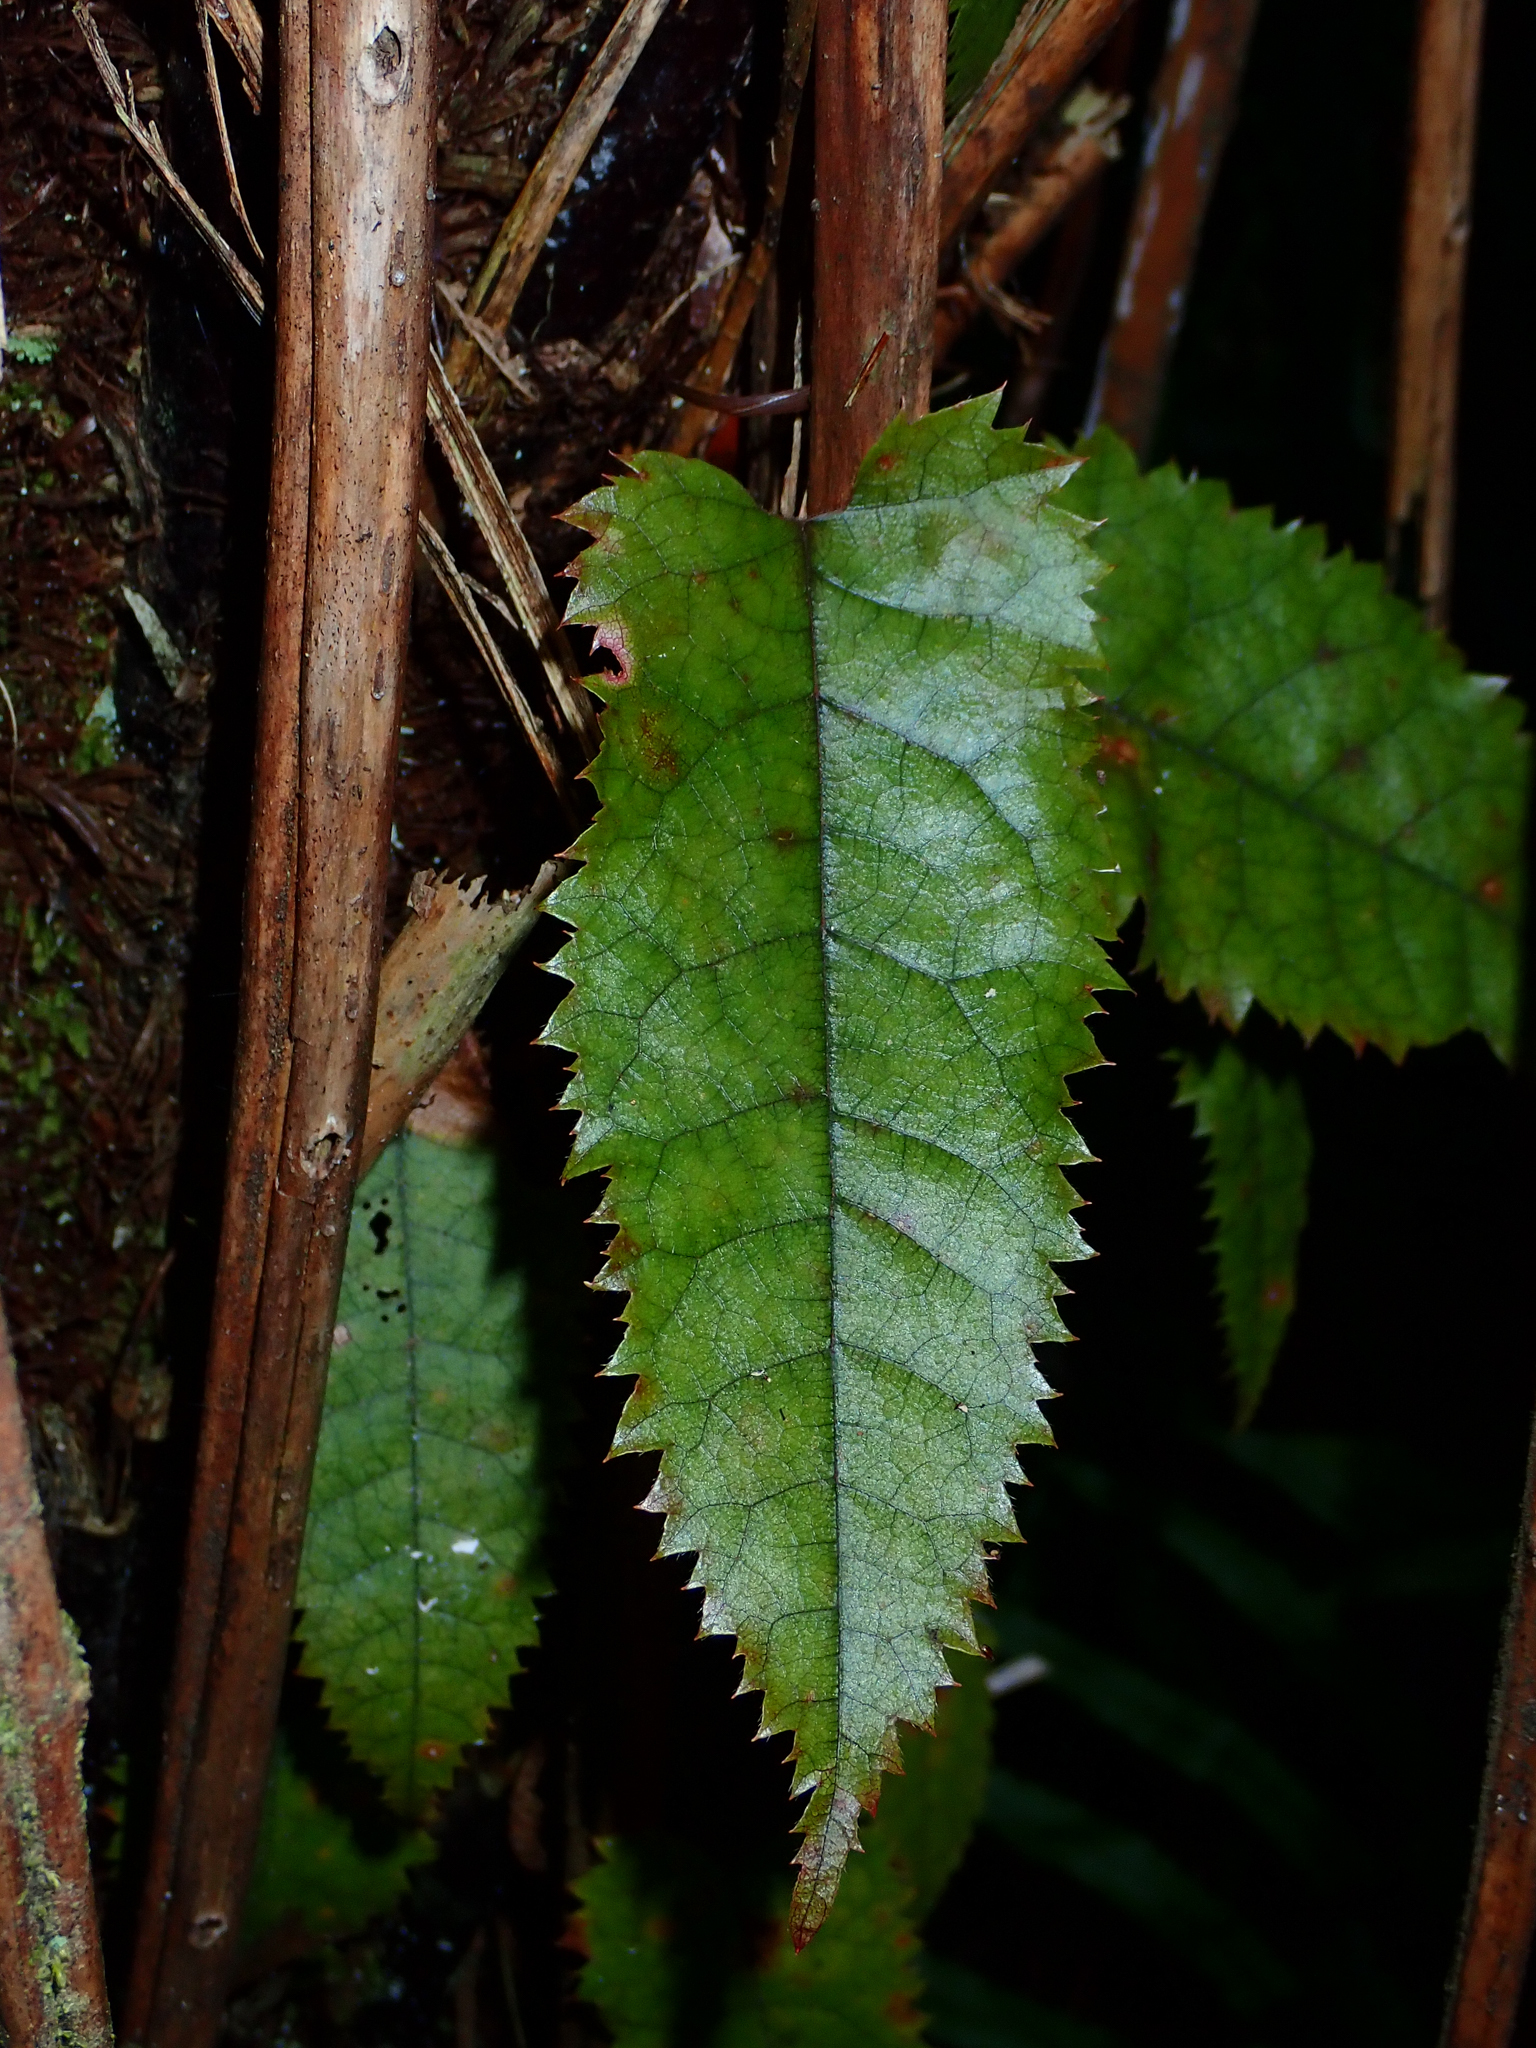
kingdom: Plantae
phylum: Tracheophyta
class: Magnoliopsida
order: Rosales
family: Rosaceae
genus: Rubus
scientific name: Rubus cissoides
